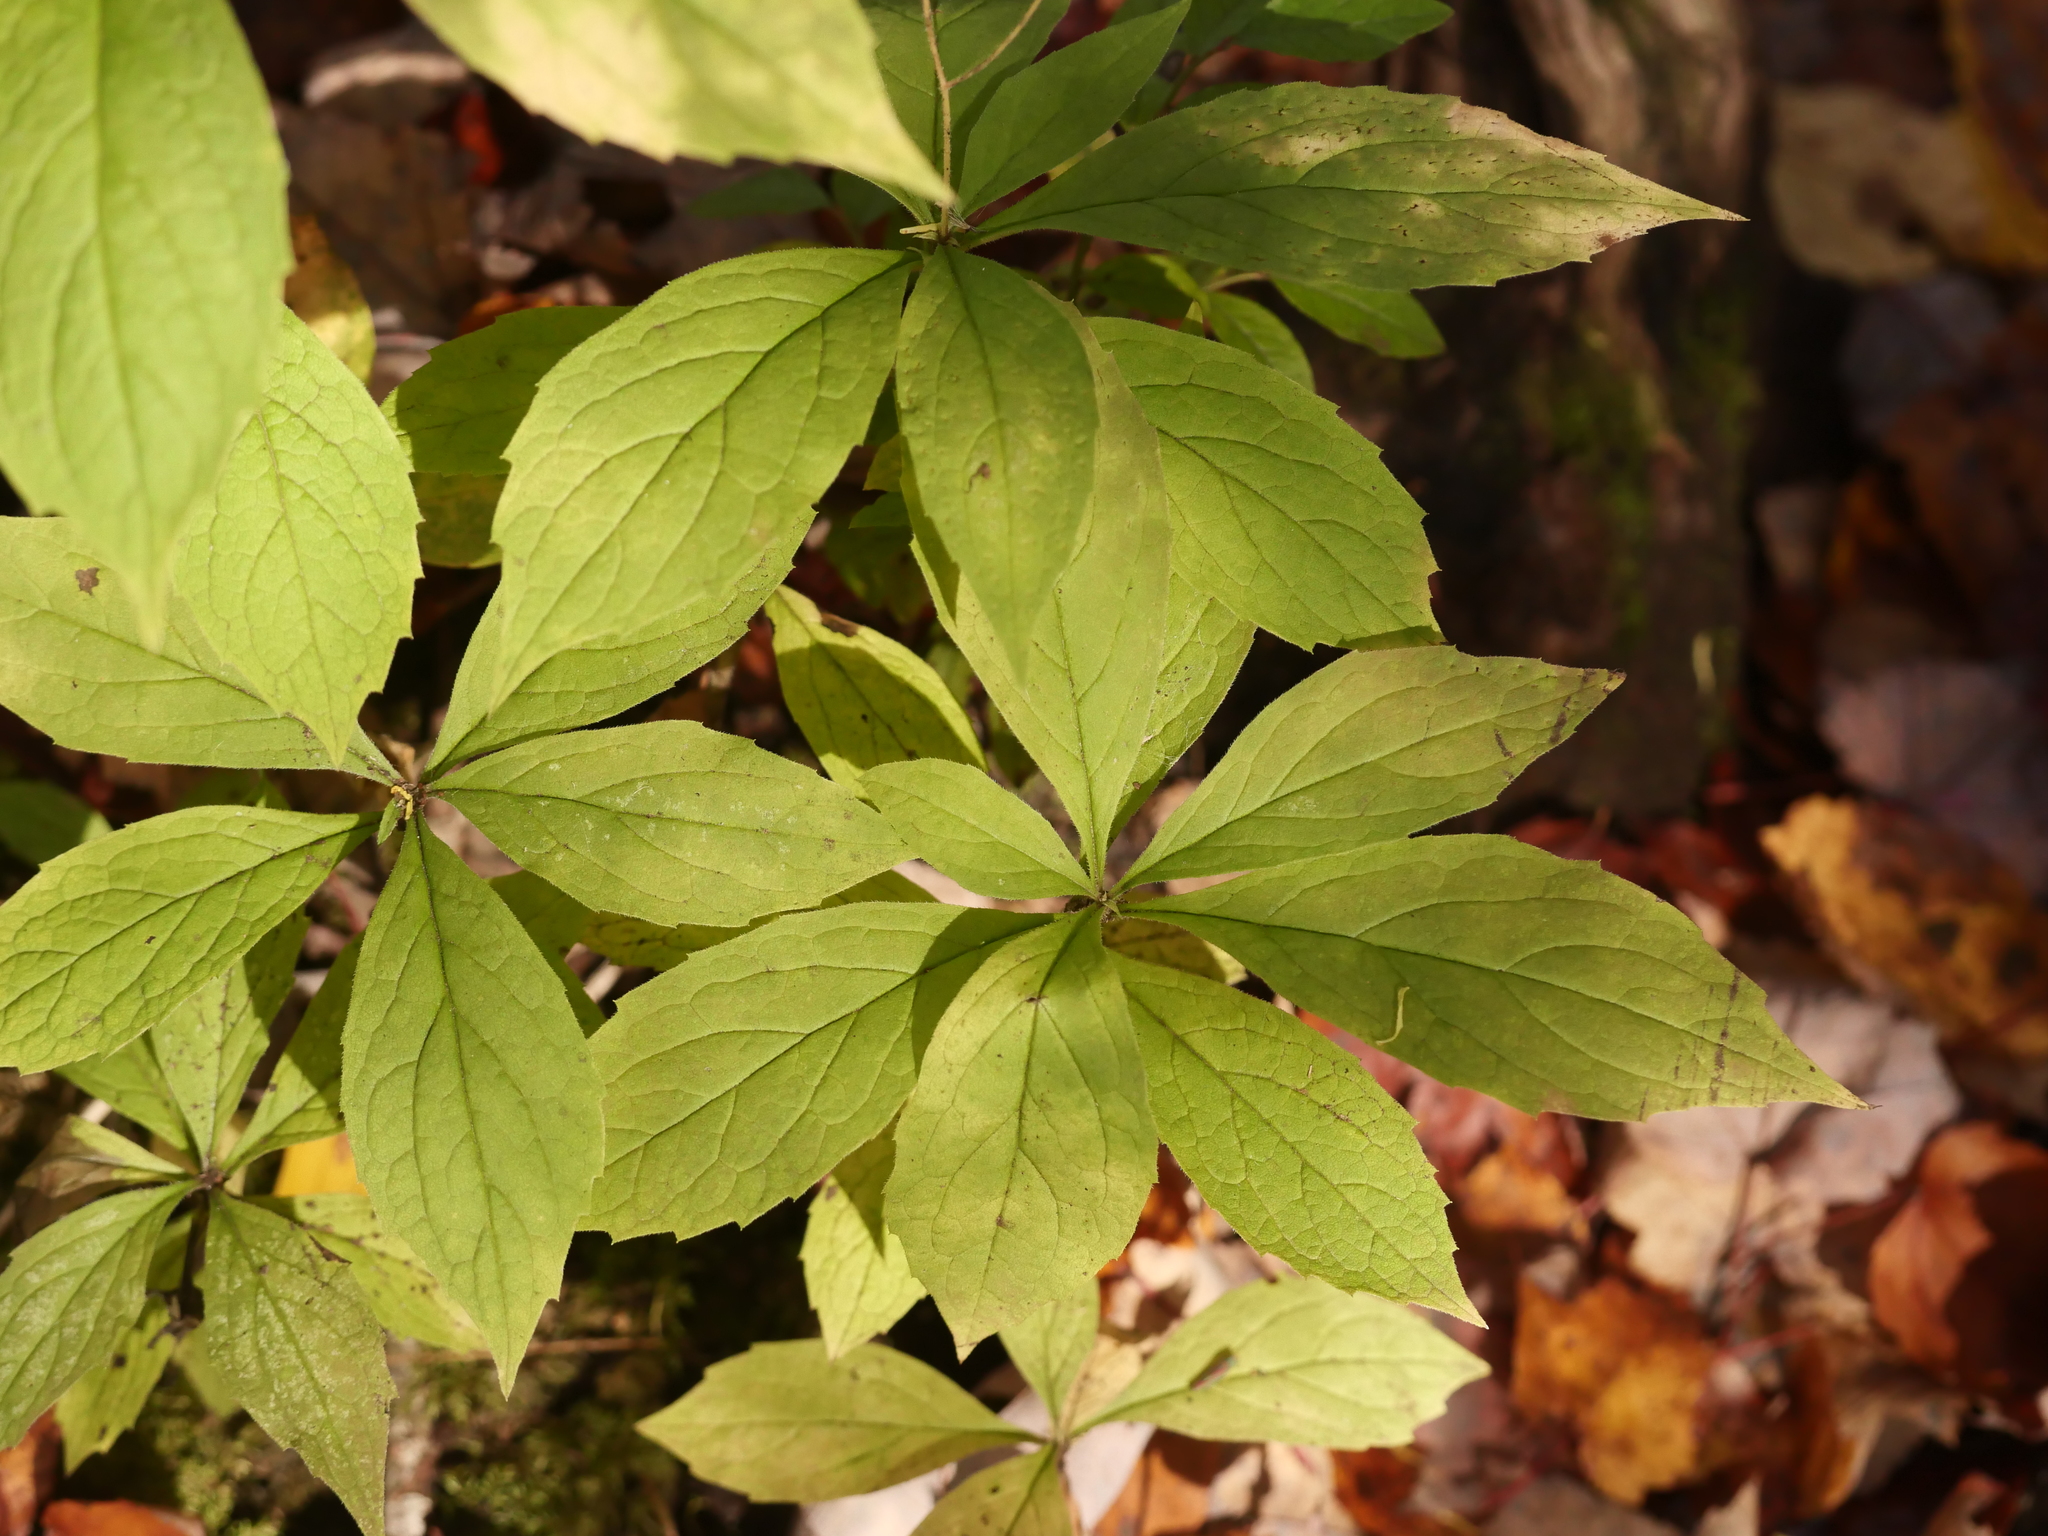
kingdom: Plantae
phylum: Tracheophyta
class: Magnoliopsida
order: Asterales
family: Asteraceae
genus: Oclemena
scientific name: Oclemena acuminata
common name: Mountain aster
